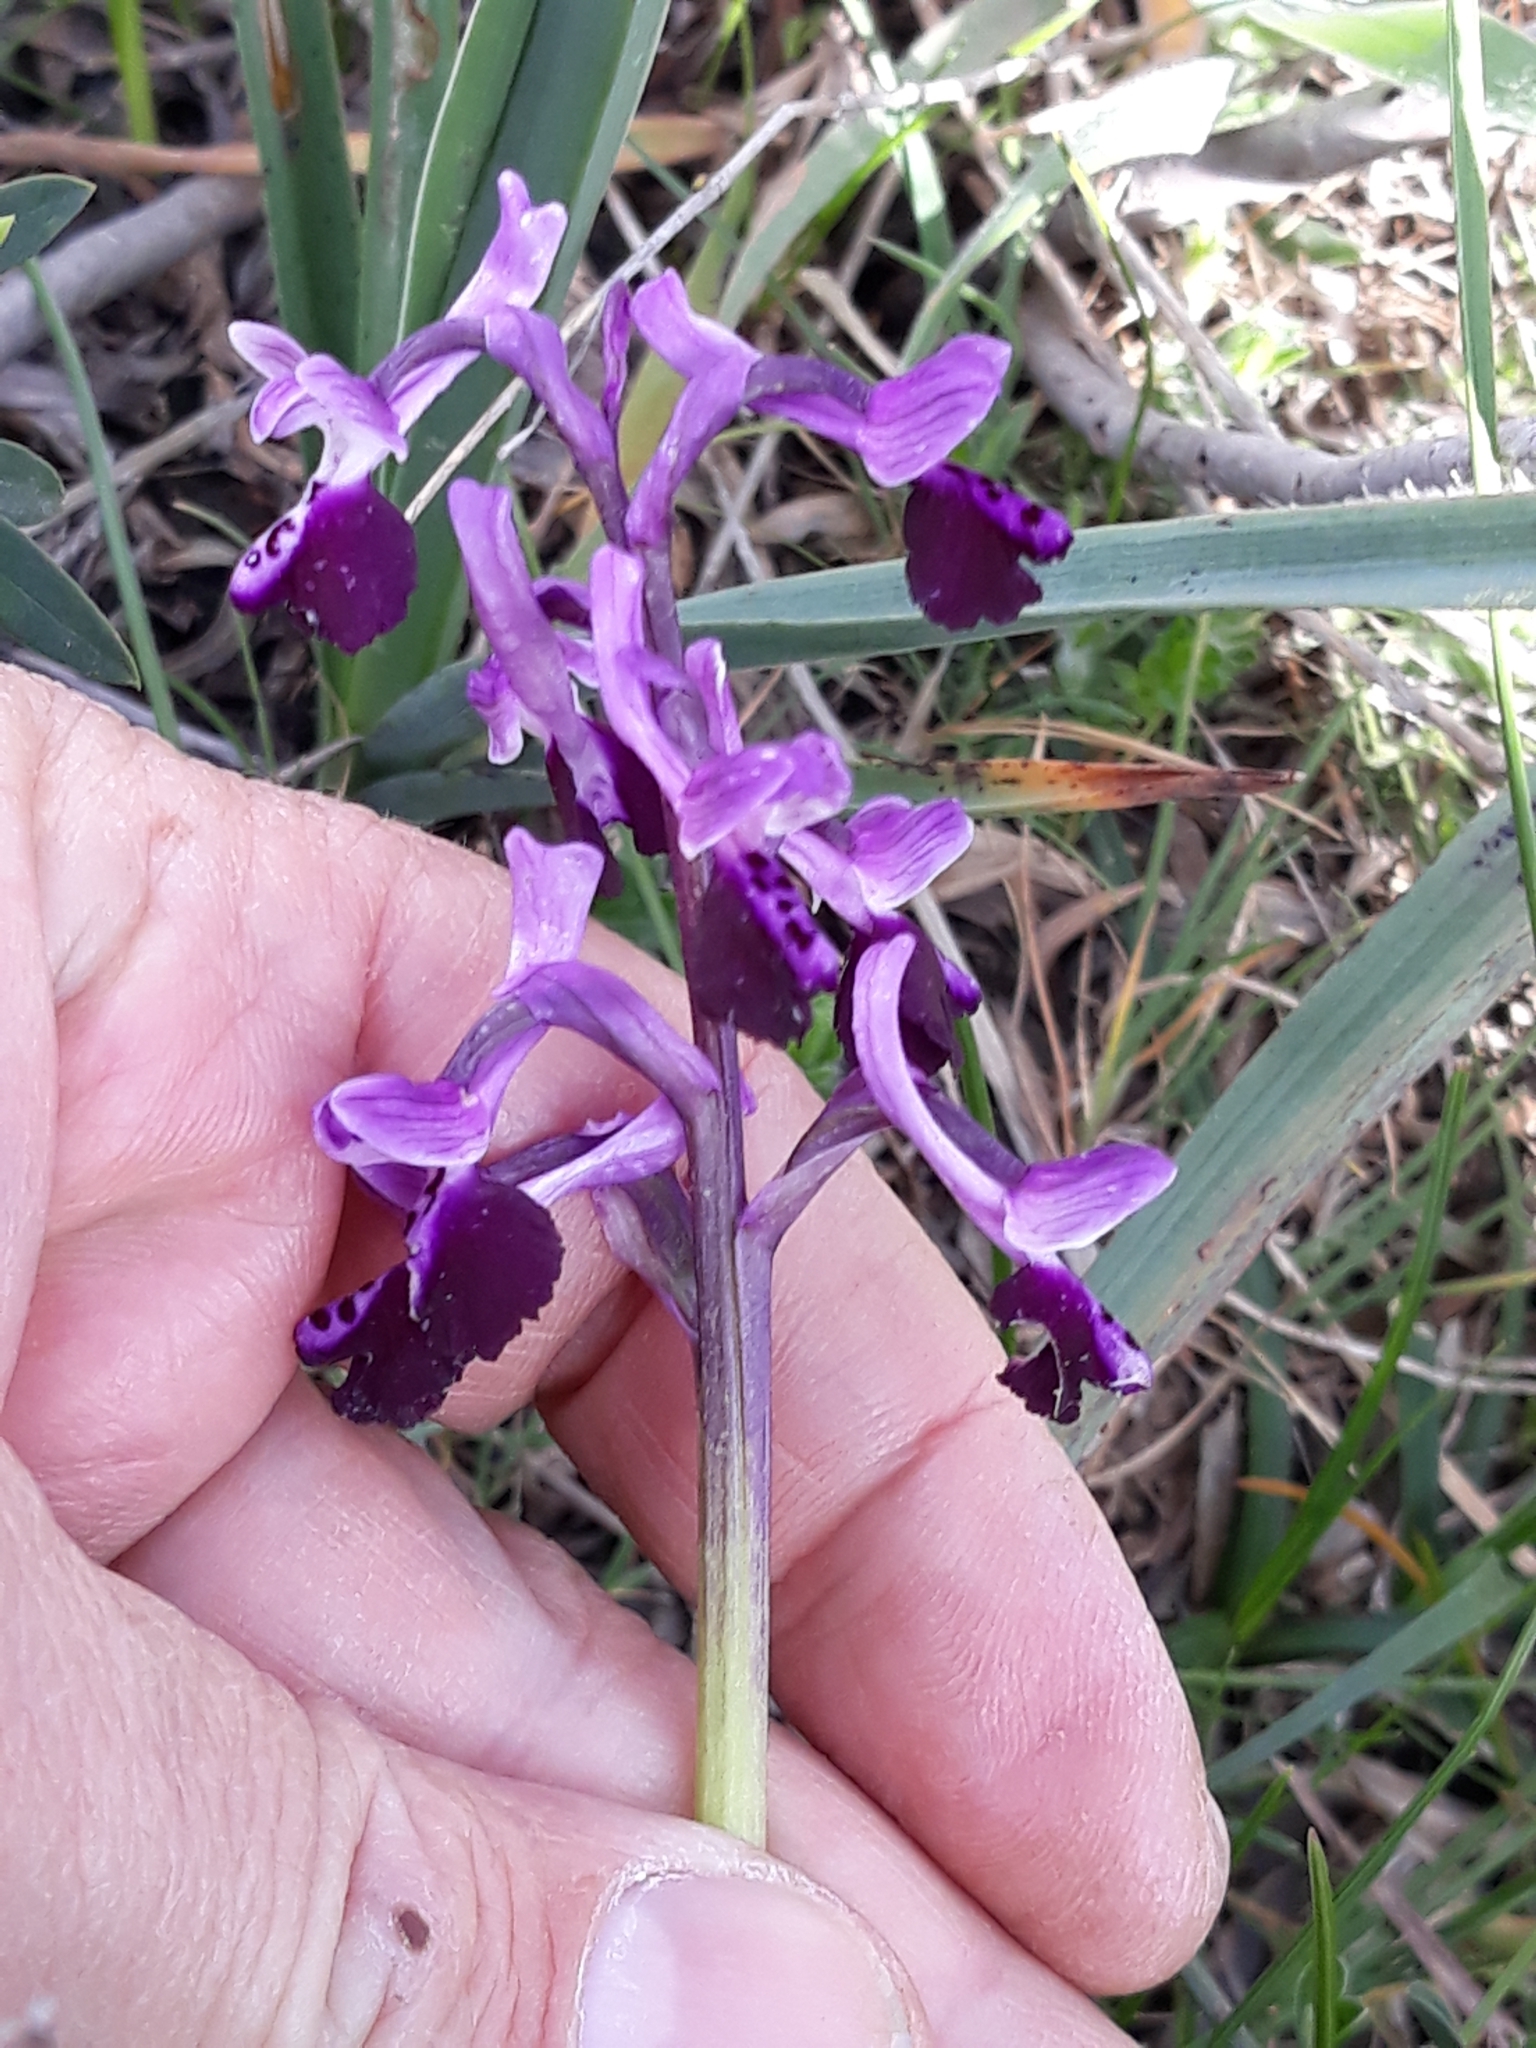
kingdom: Plantae
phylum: Tracheophyta
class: Liliopsida
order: Asparagales
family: Orchidaceae
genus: Anacamptis
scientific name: Anacamptis morio
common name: Green-winged orchid
